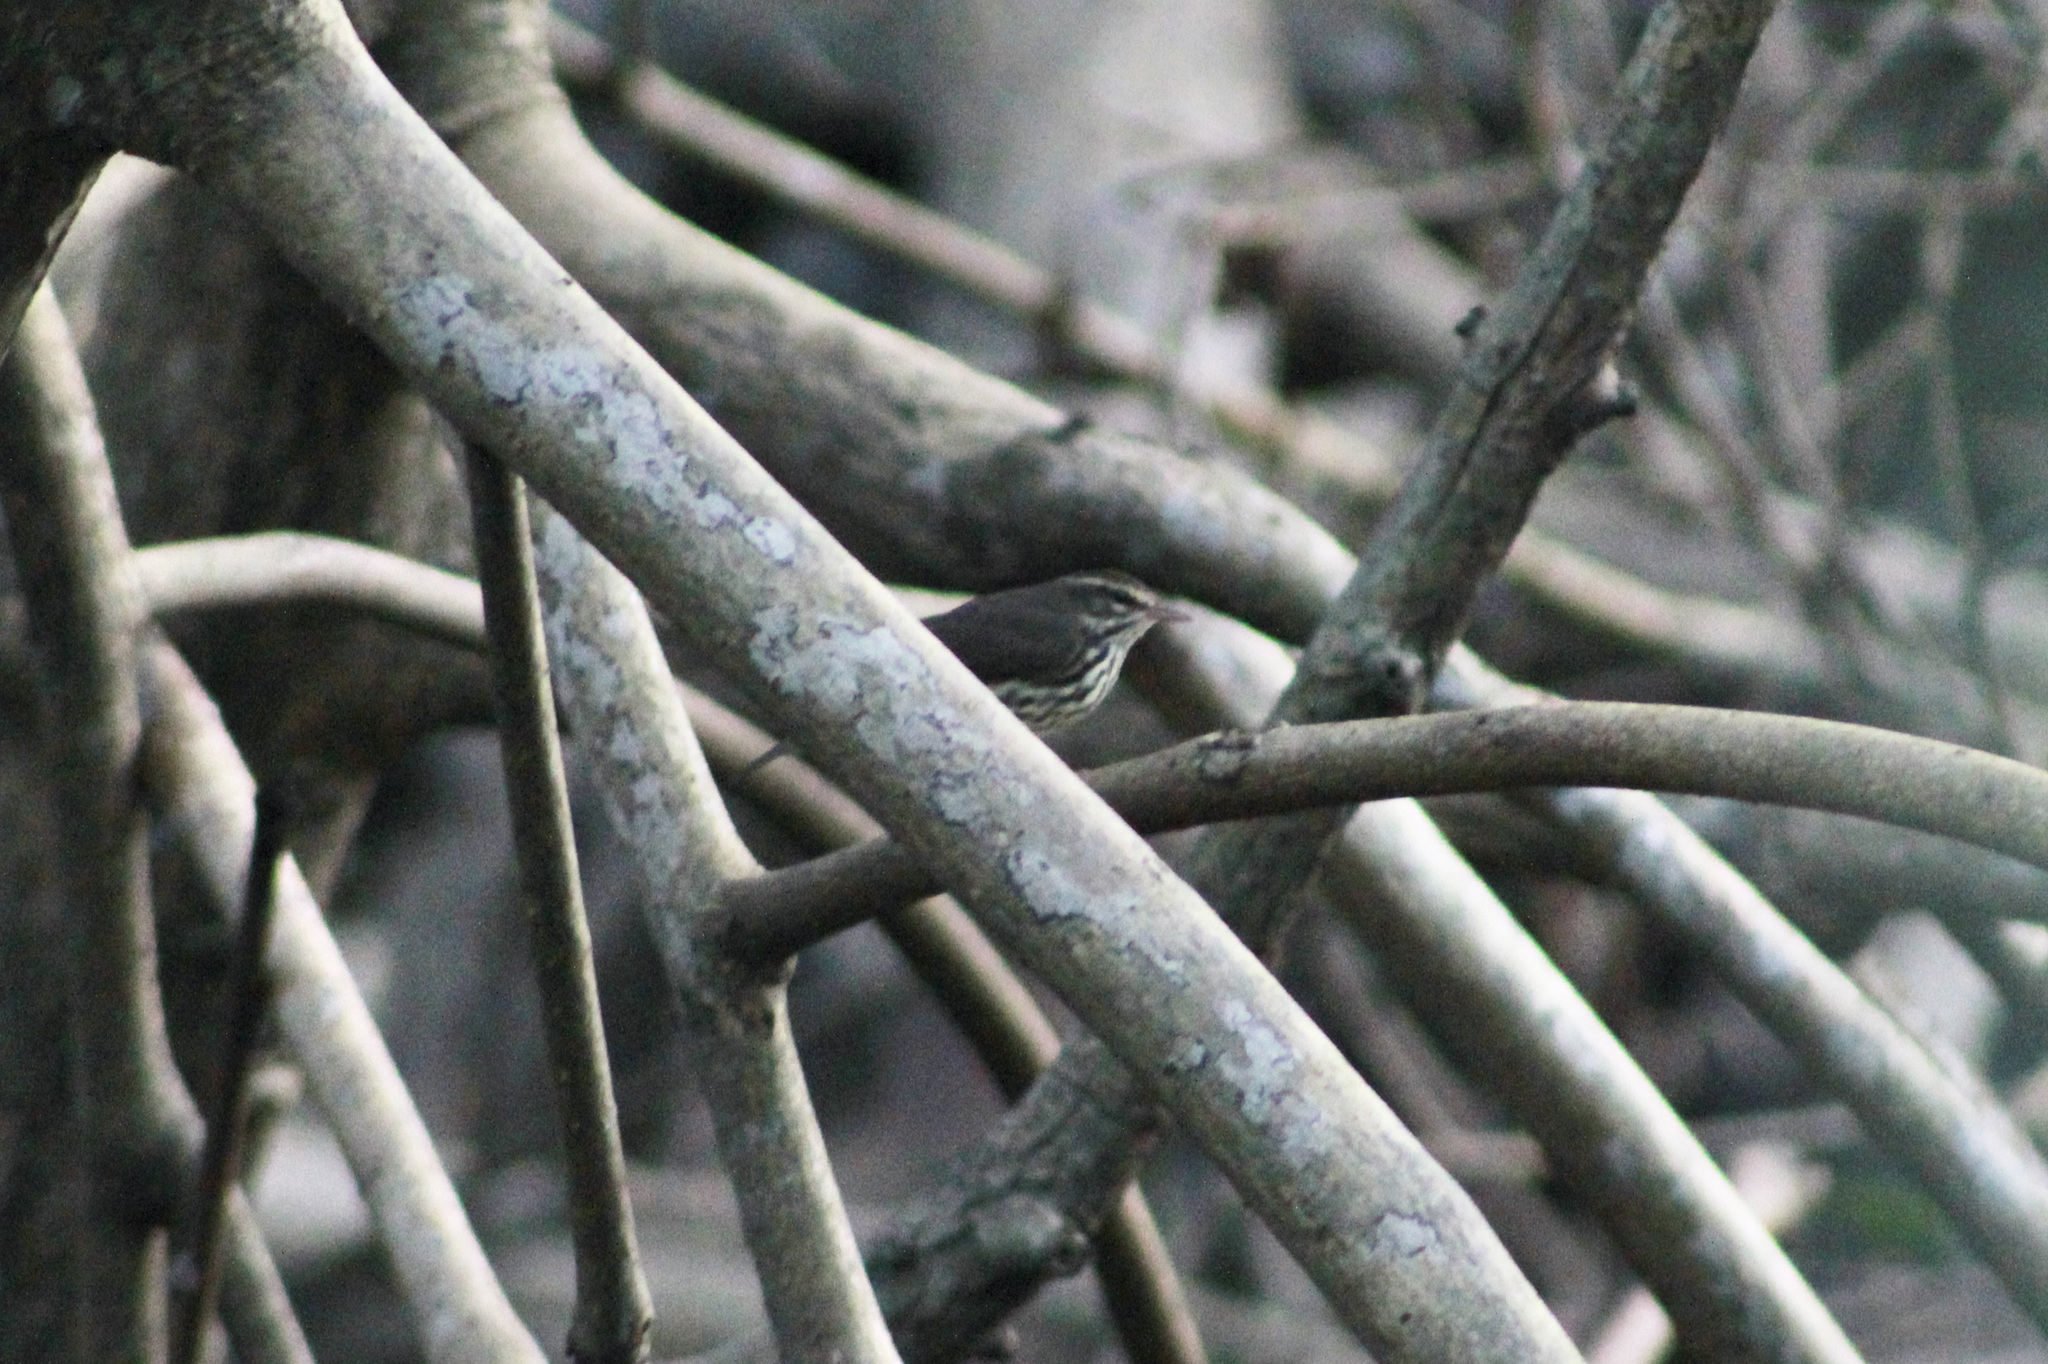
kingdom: Animalia
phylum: Chordata
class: Aves
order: Passeriformes
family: Parulidae
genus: Parkesia
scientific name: Parkesia noveboracensis
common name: Northern waterthrush
